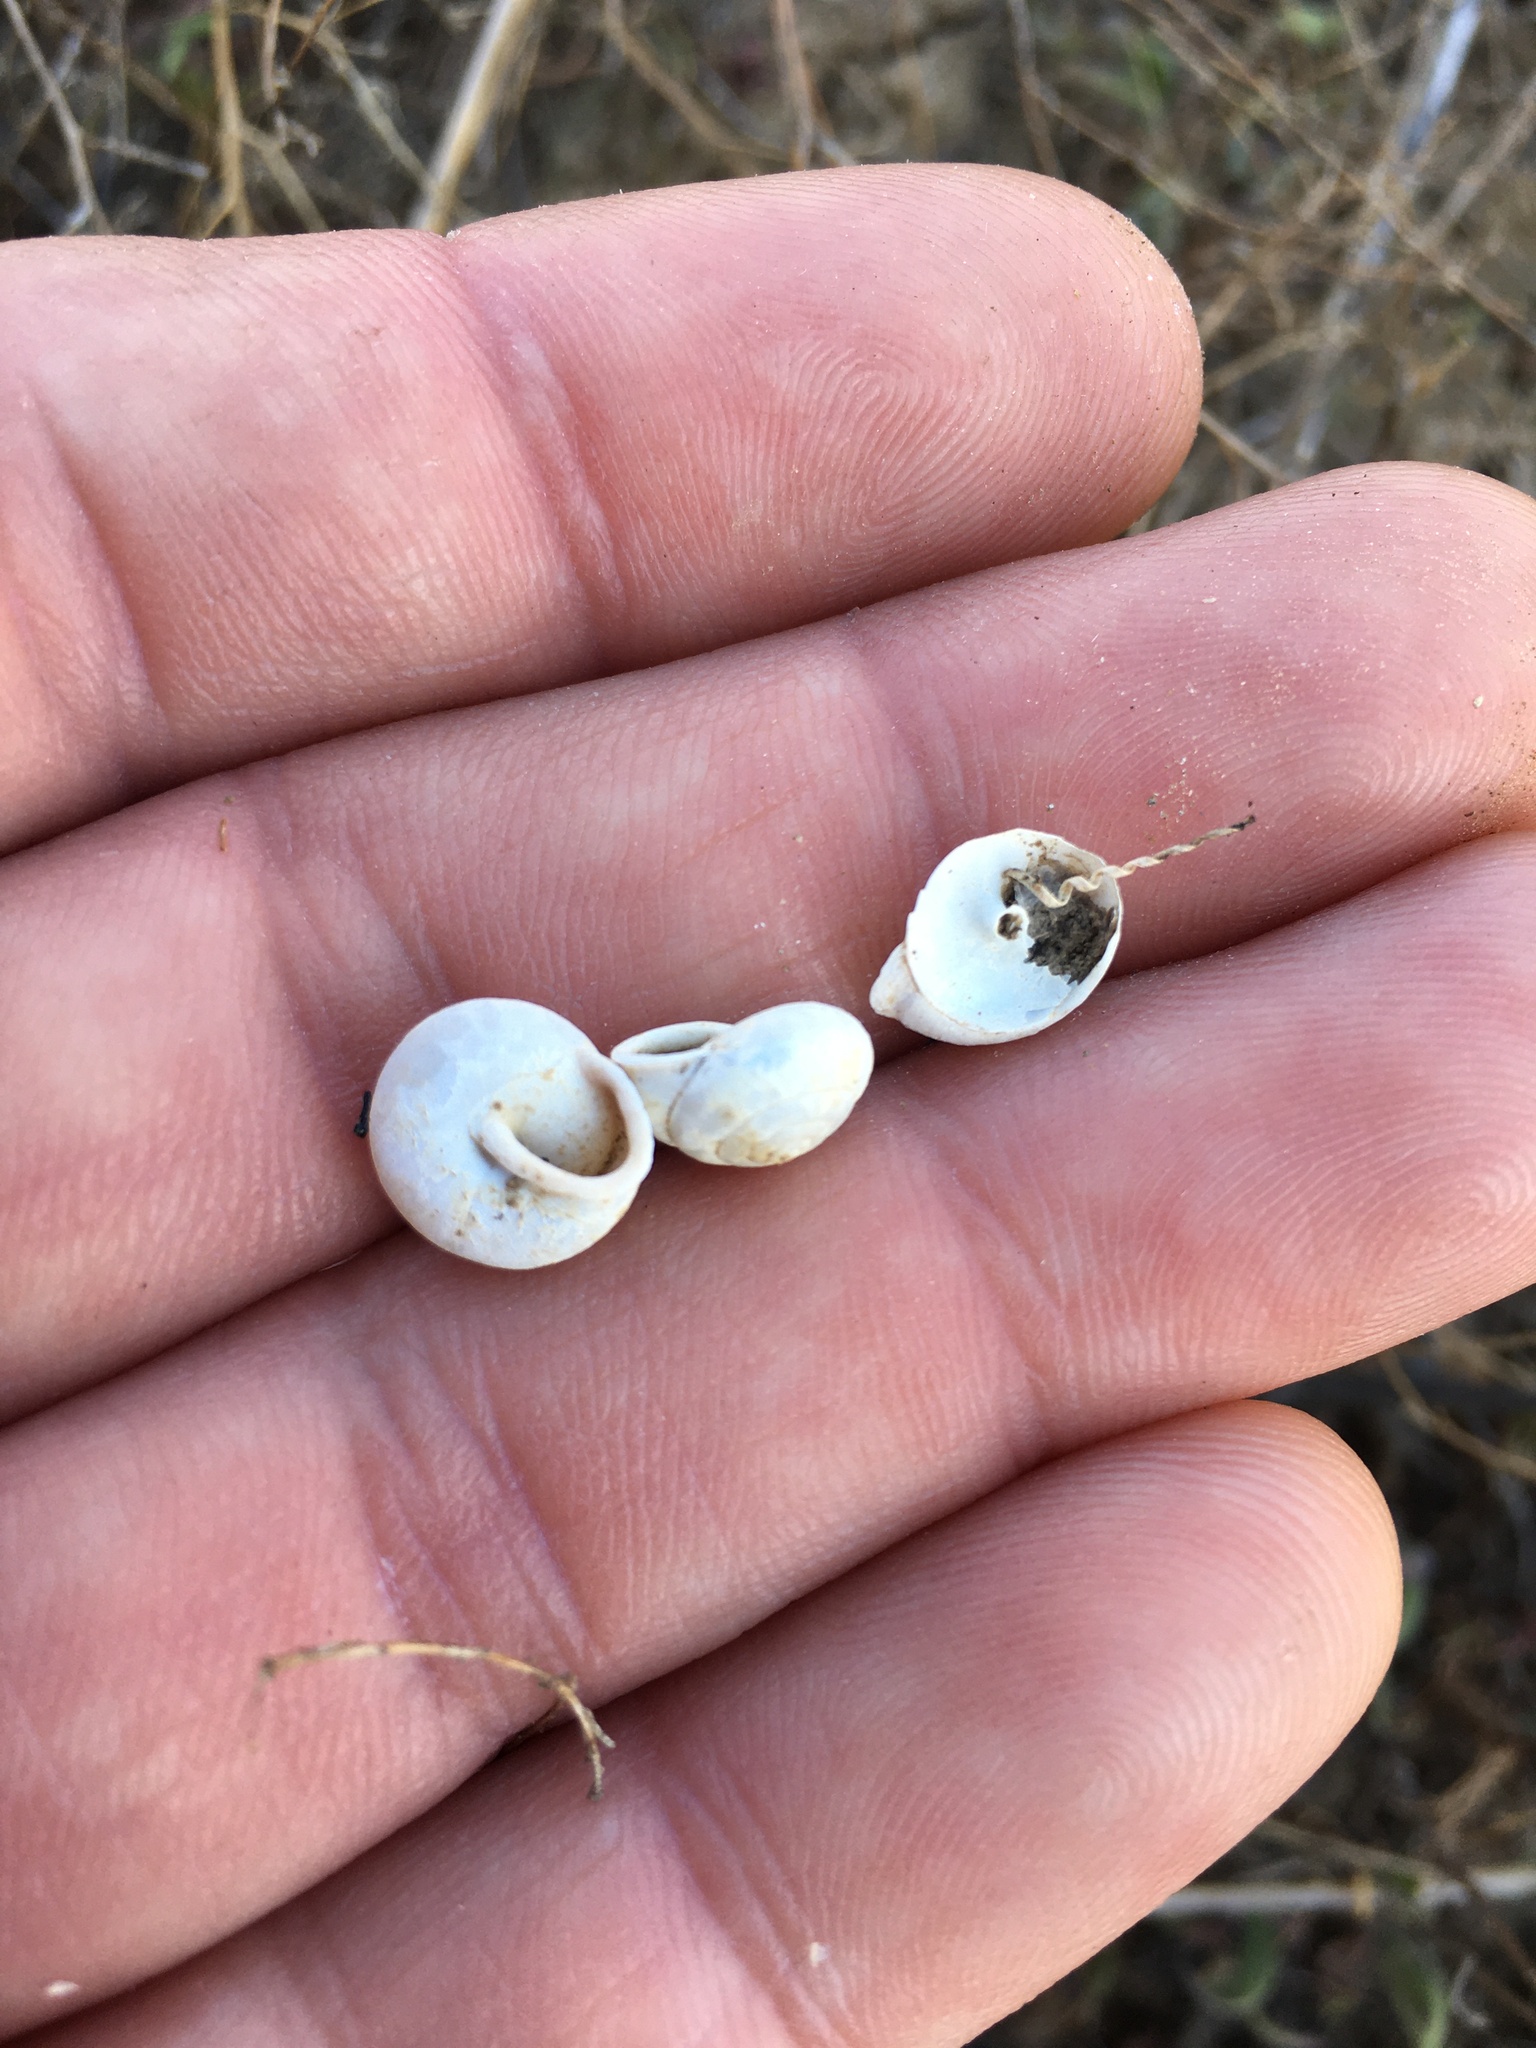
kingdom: Animalia
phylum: Mollusca
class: Gastropoda
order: Stylommatophora
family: Xanthonychidae
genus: Micrarionta
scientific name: Micrarionta facta
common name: Concentrated snail
